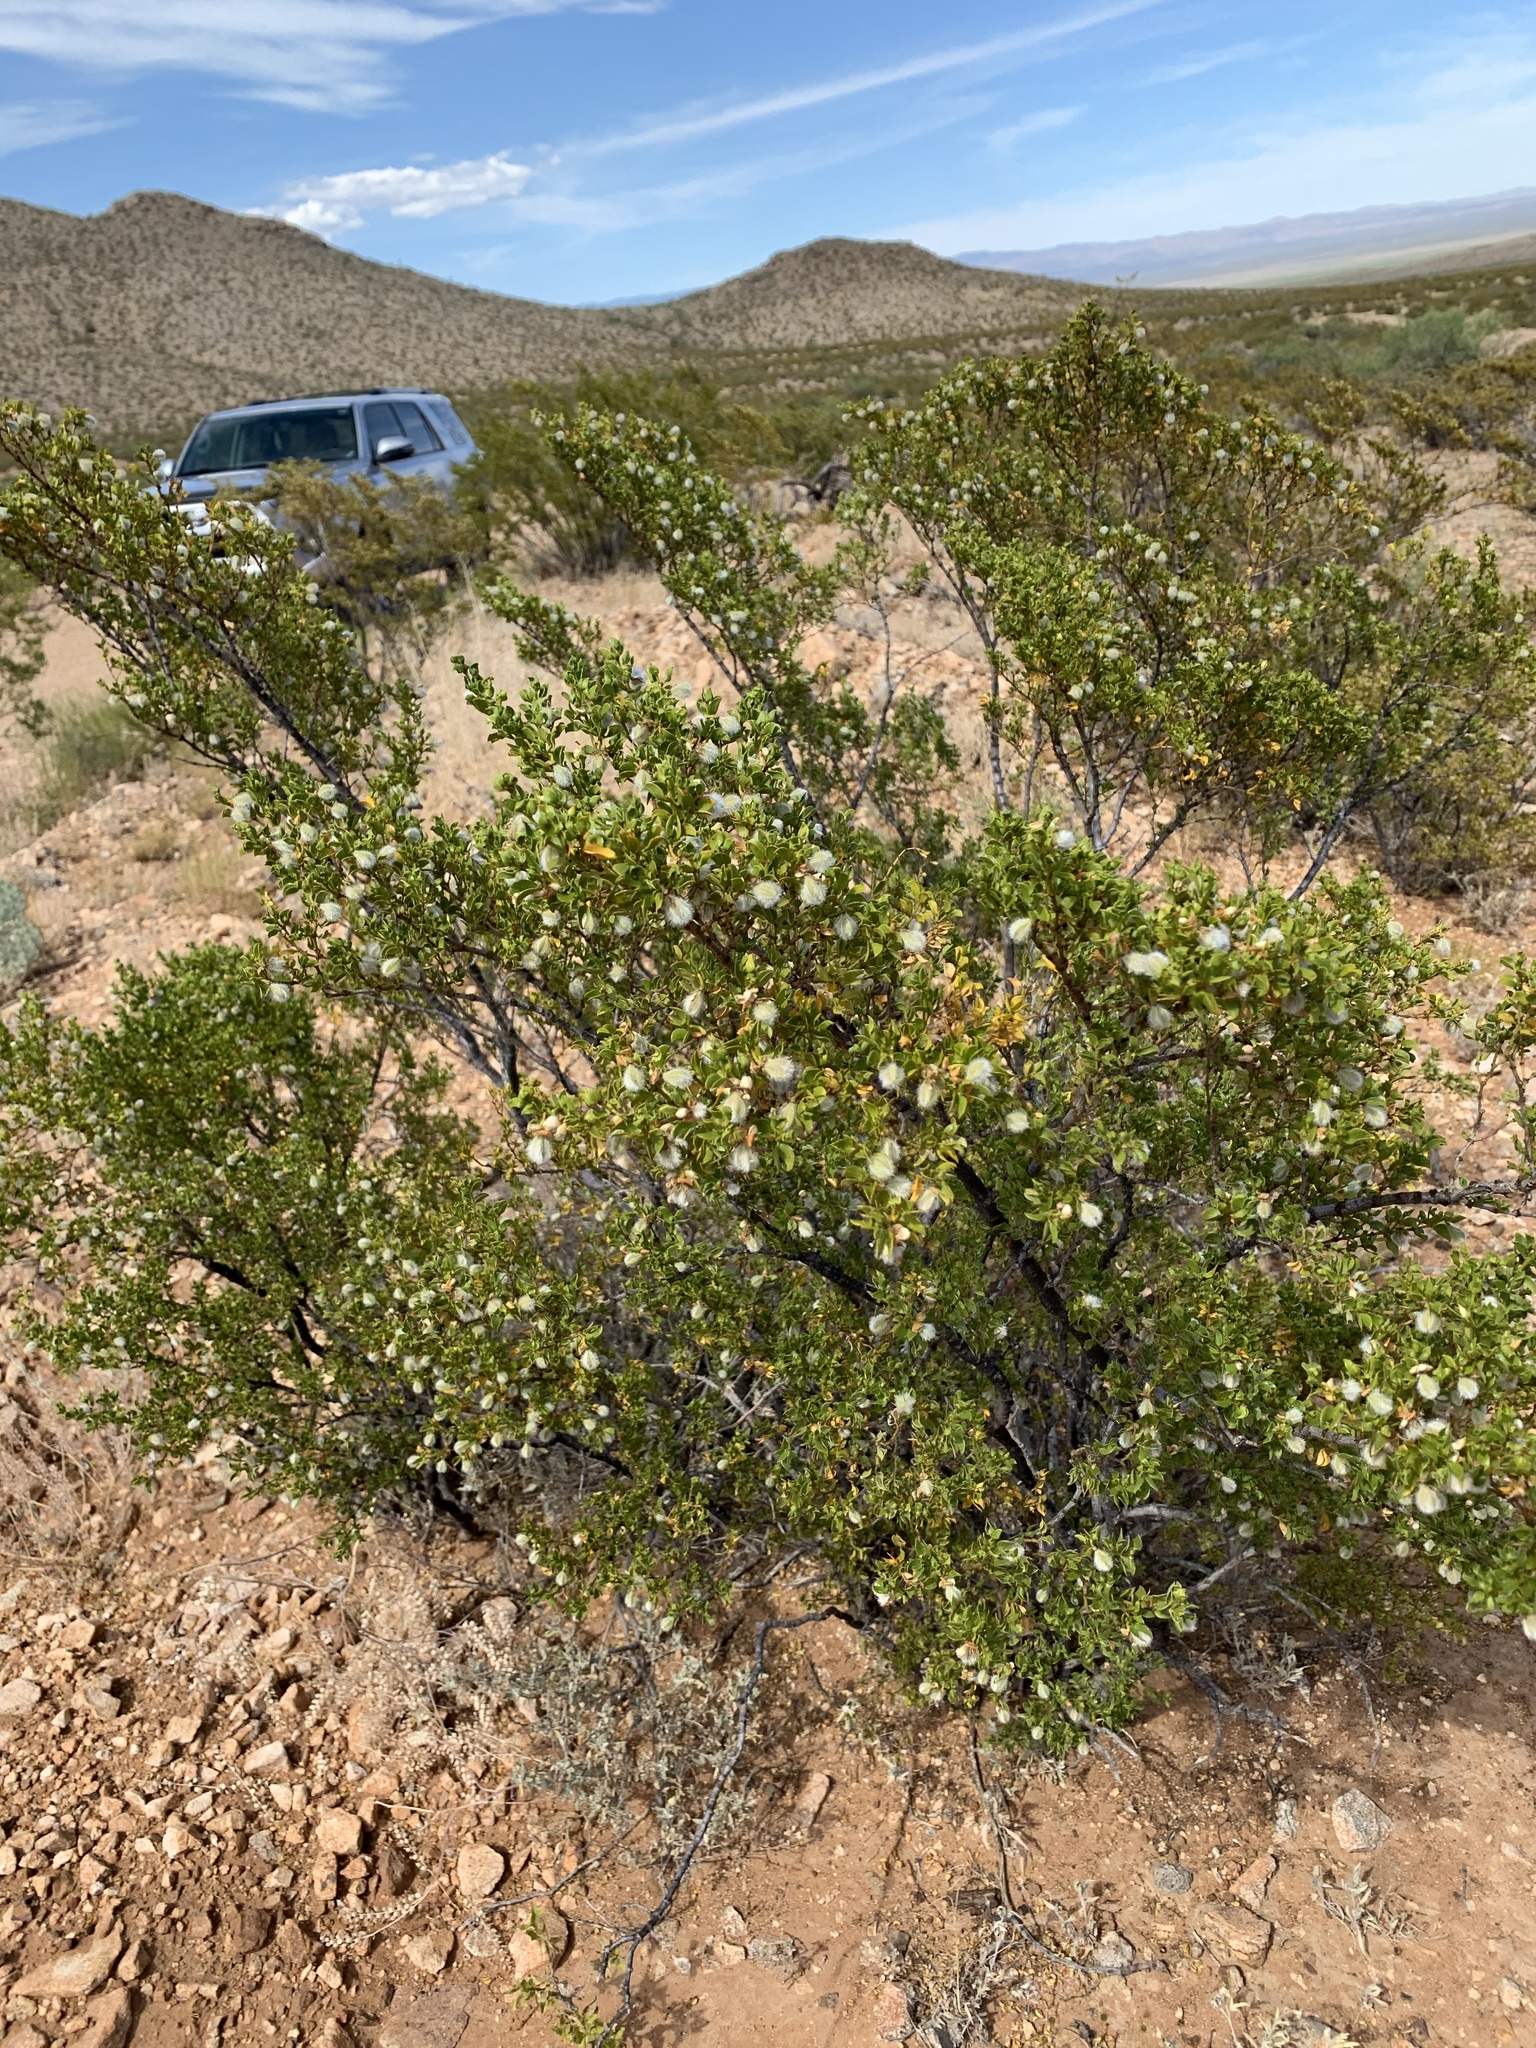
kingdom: Plantae
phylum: Tracheophyta
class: Magnoliopsida
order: Zygophyllales
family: Zygophyllaceae
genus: Larrea
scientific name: Larrea tridentata
